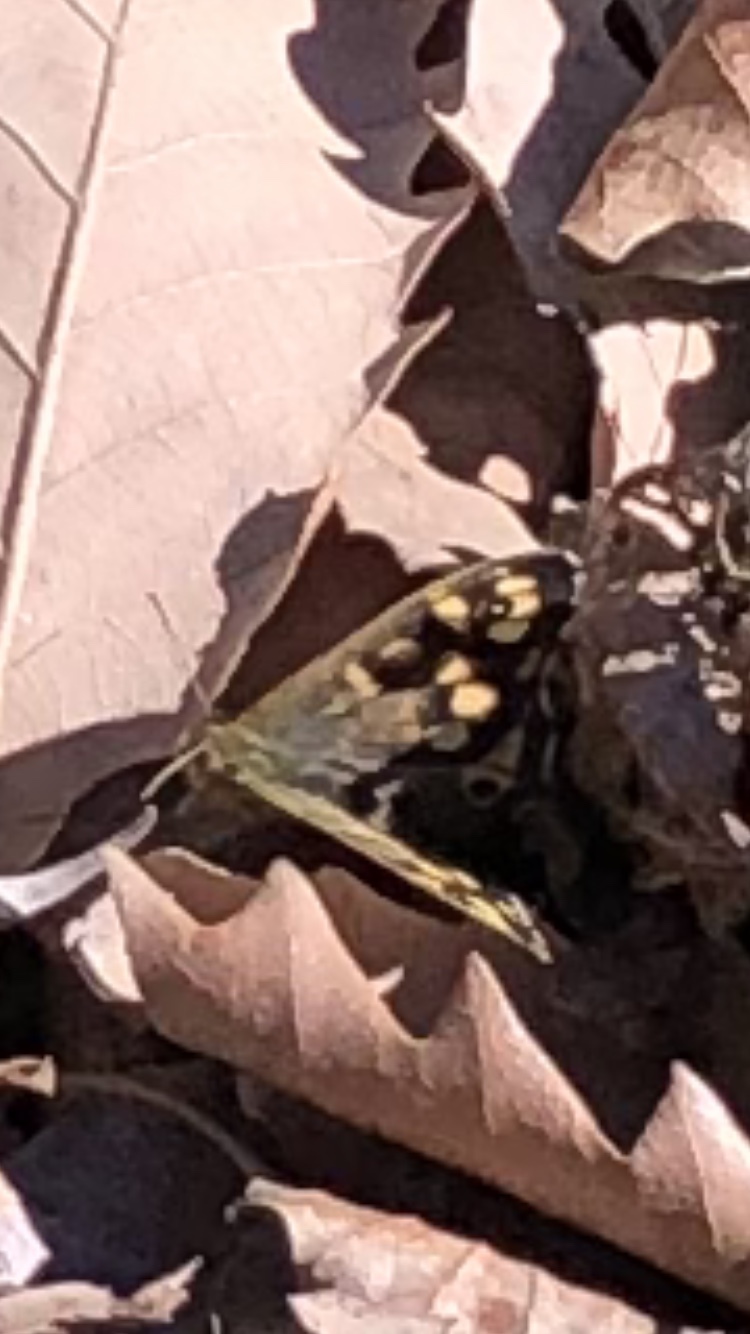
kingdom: Animalia
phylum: Arthropoda
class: Insecta
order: Lepidoptera
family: Nymphalidae
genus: Pararge
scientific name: Pararge aegeria
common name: Speckled wood
